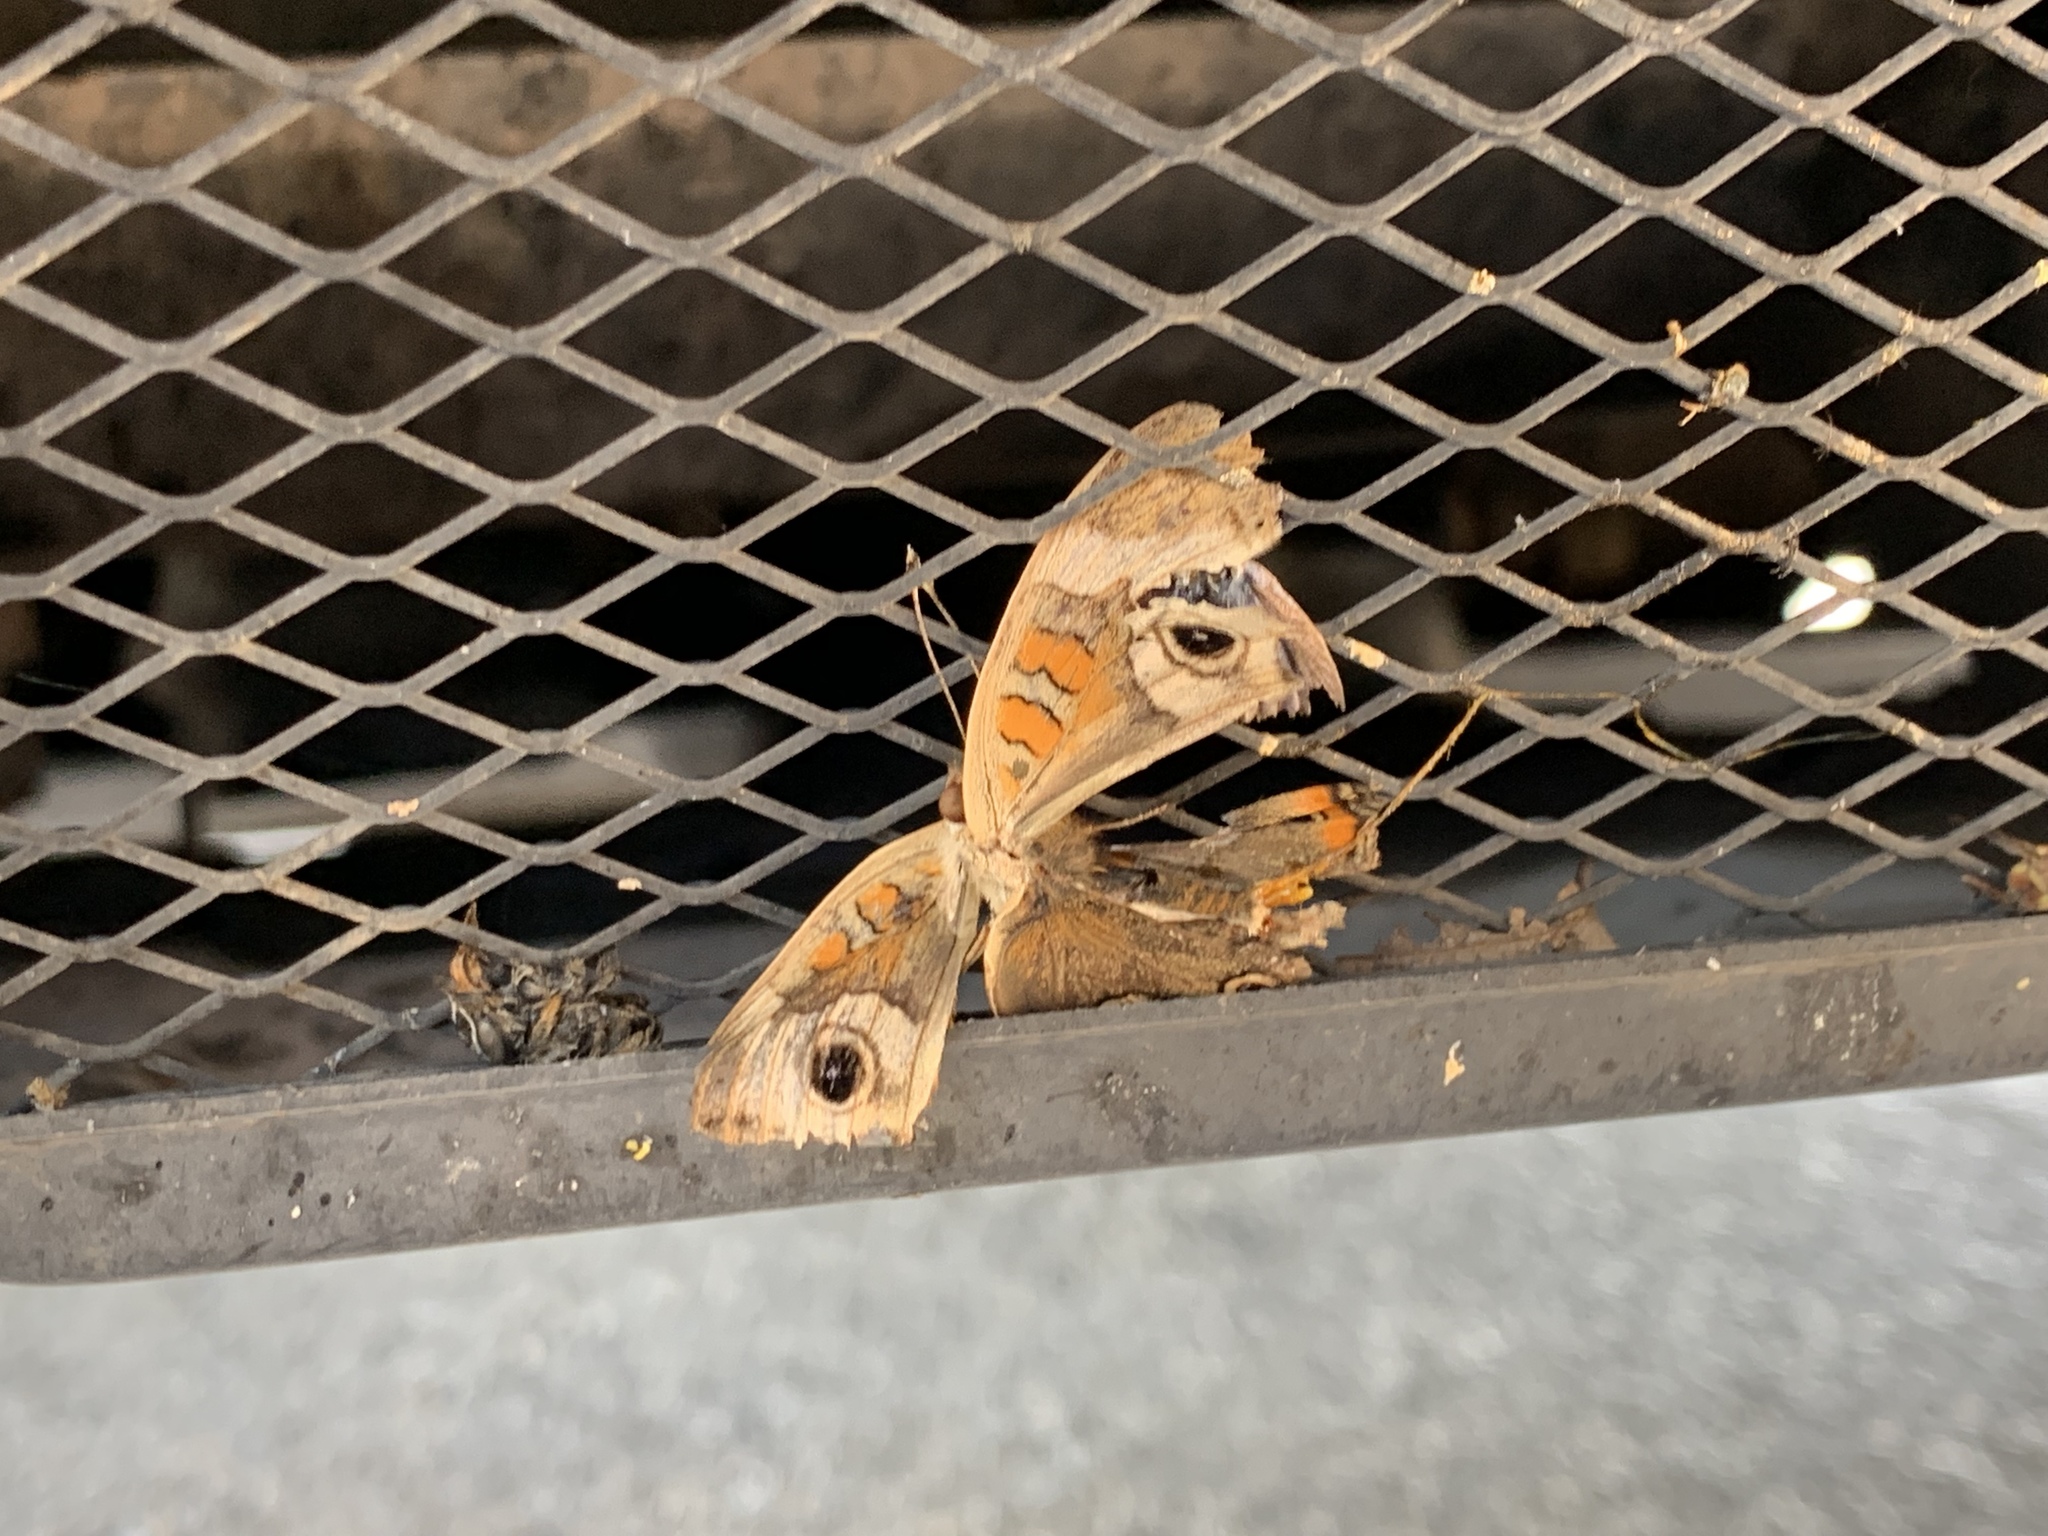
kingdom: Animalia
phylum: Arthropoda
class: Insecta
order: Lepidoptera
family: Nymphalidae
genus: Junonia
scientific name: Junonia coenia
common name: Common buckeye
